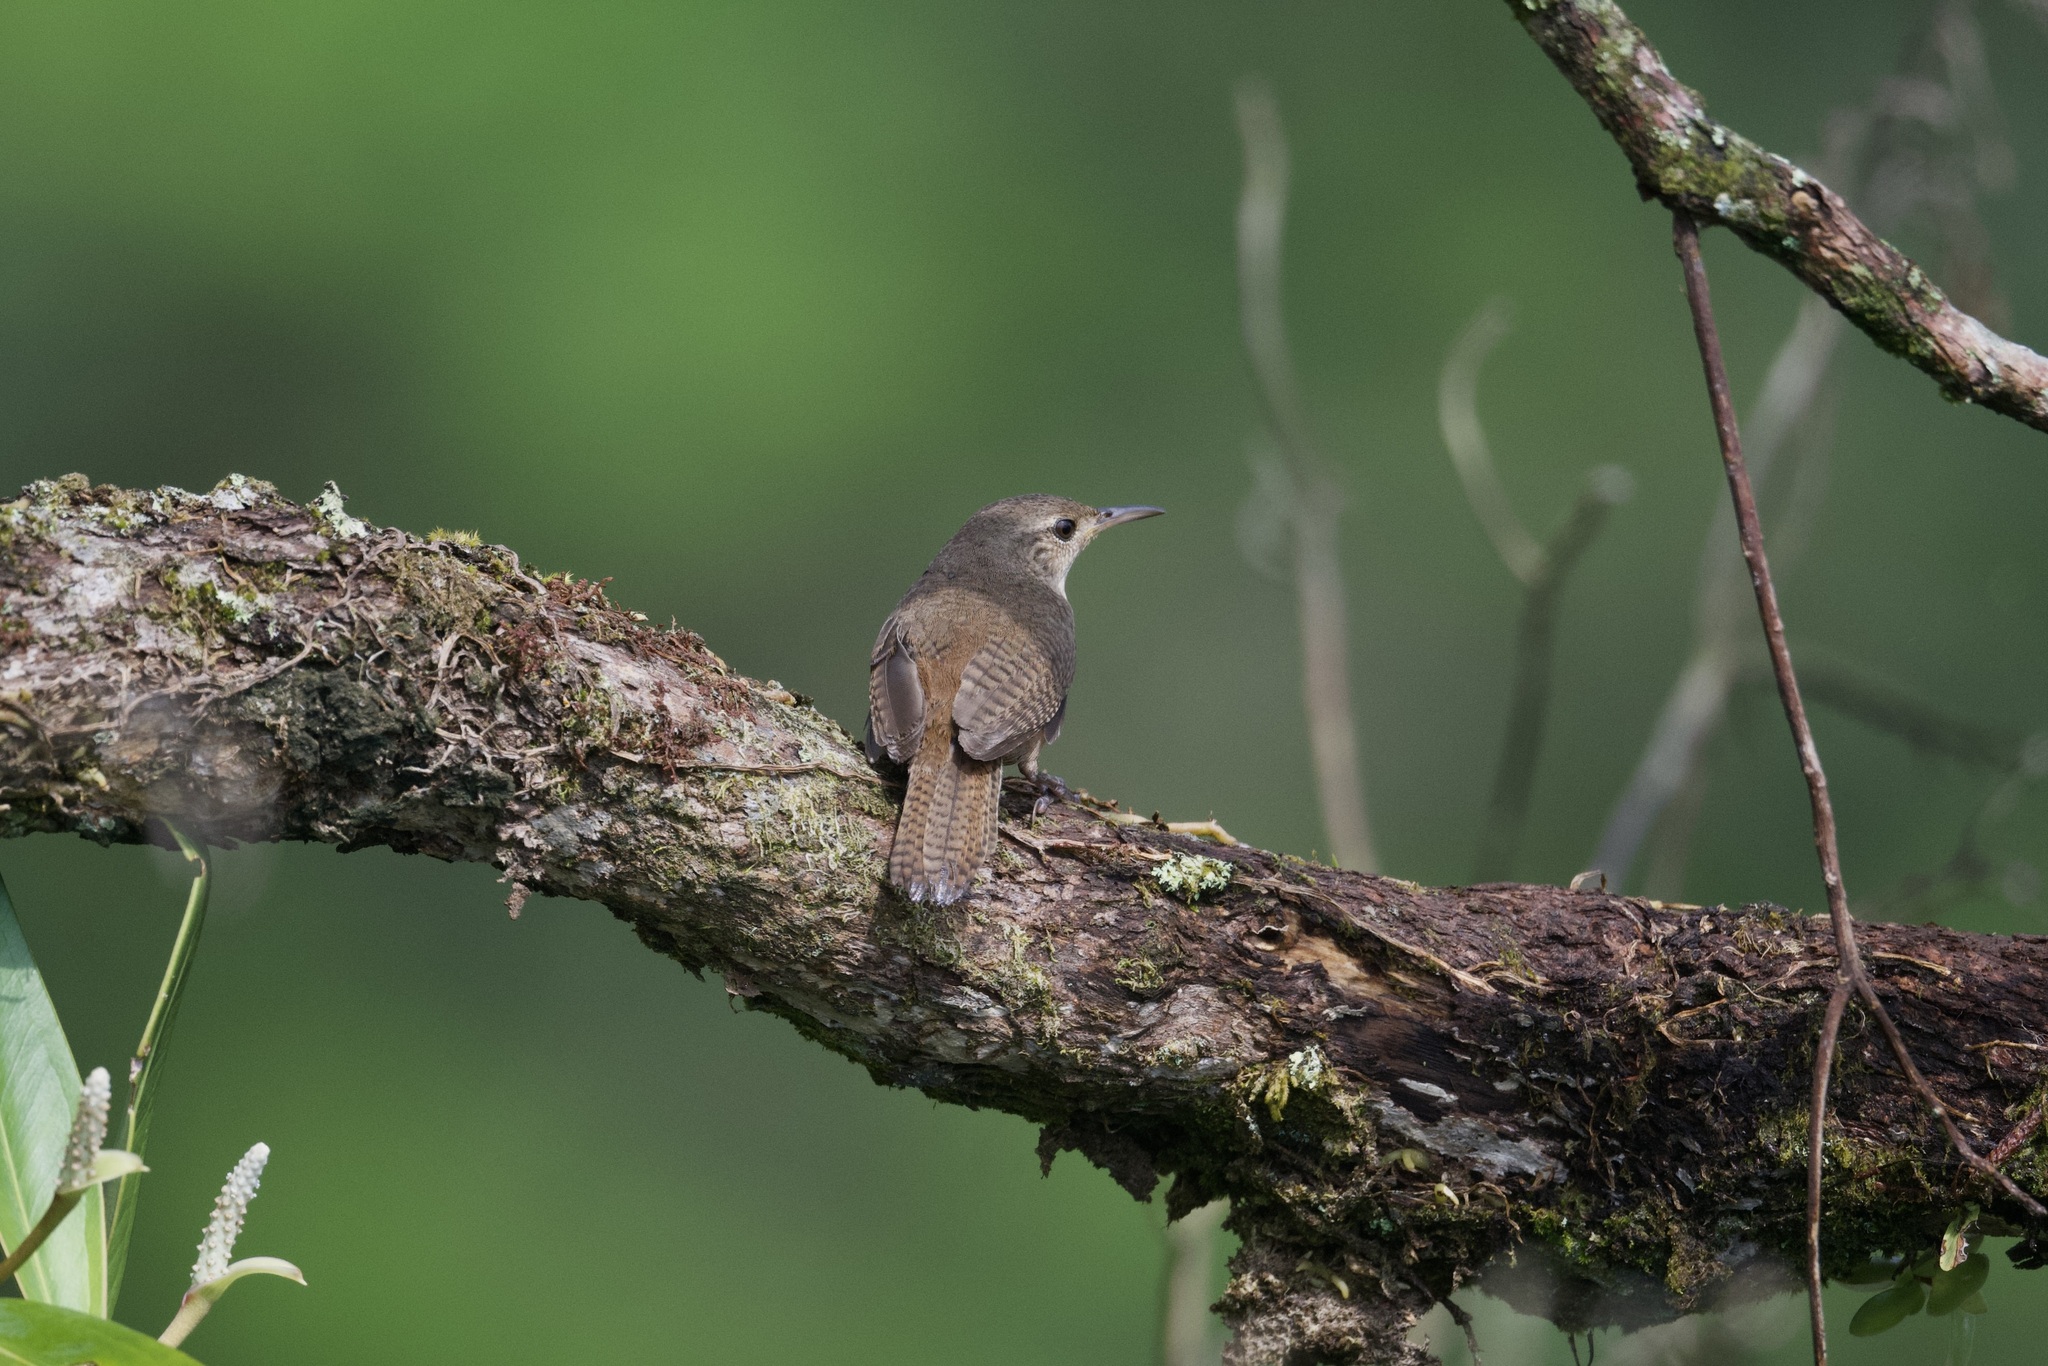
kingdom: Animalia
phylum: Chordata
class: Aves
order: Passeriformes
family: Troglodytidae
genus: Troglodytes
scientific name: Troglodytes aedon
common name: House wren
